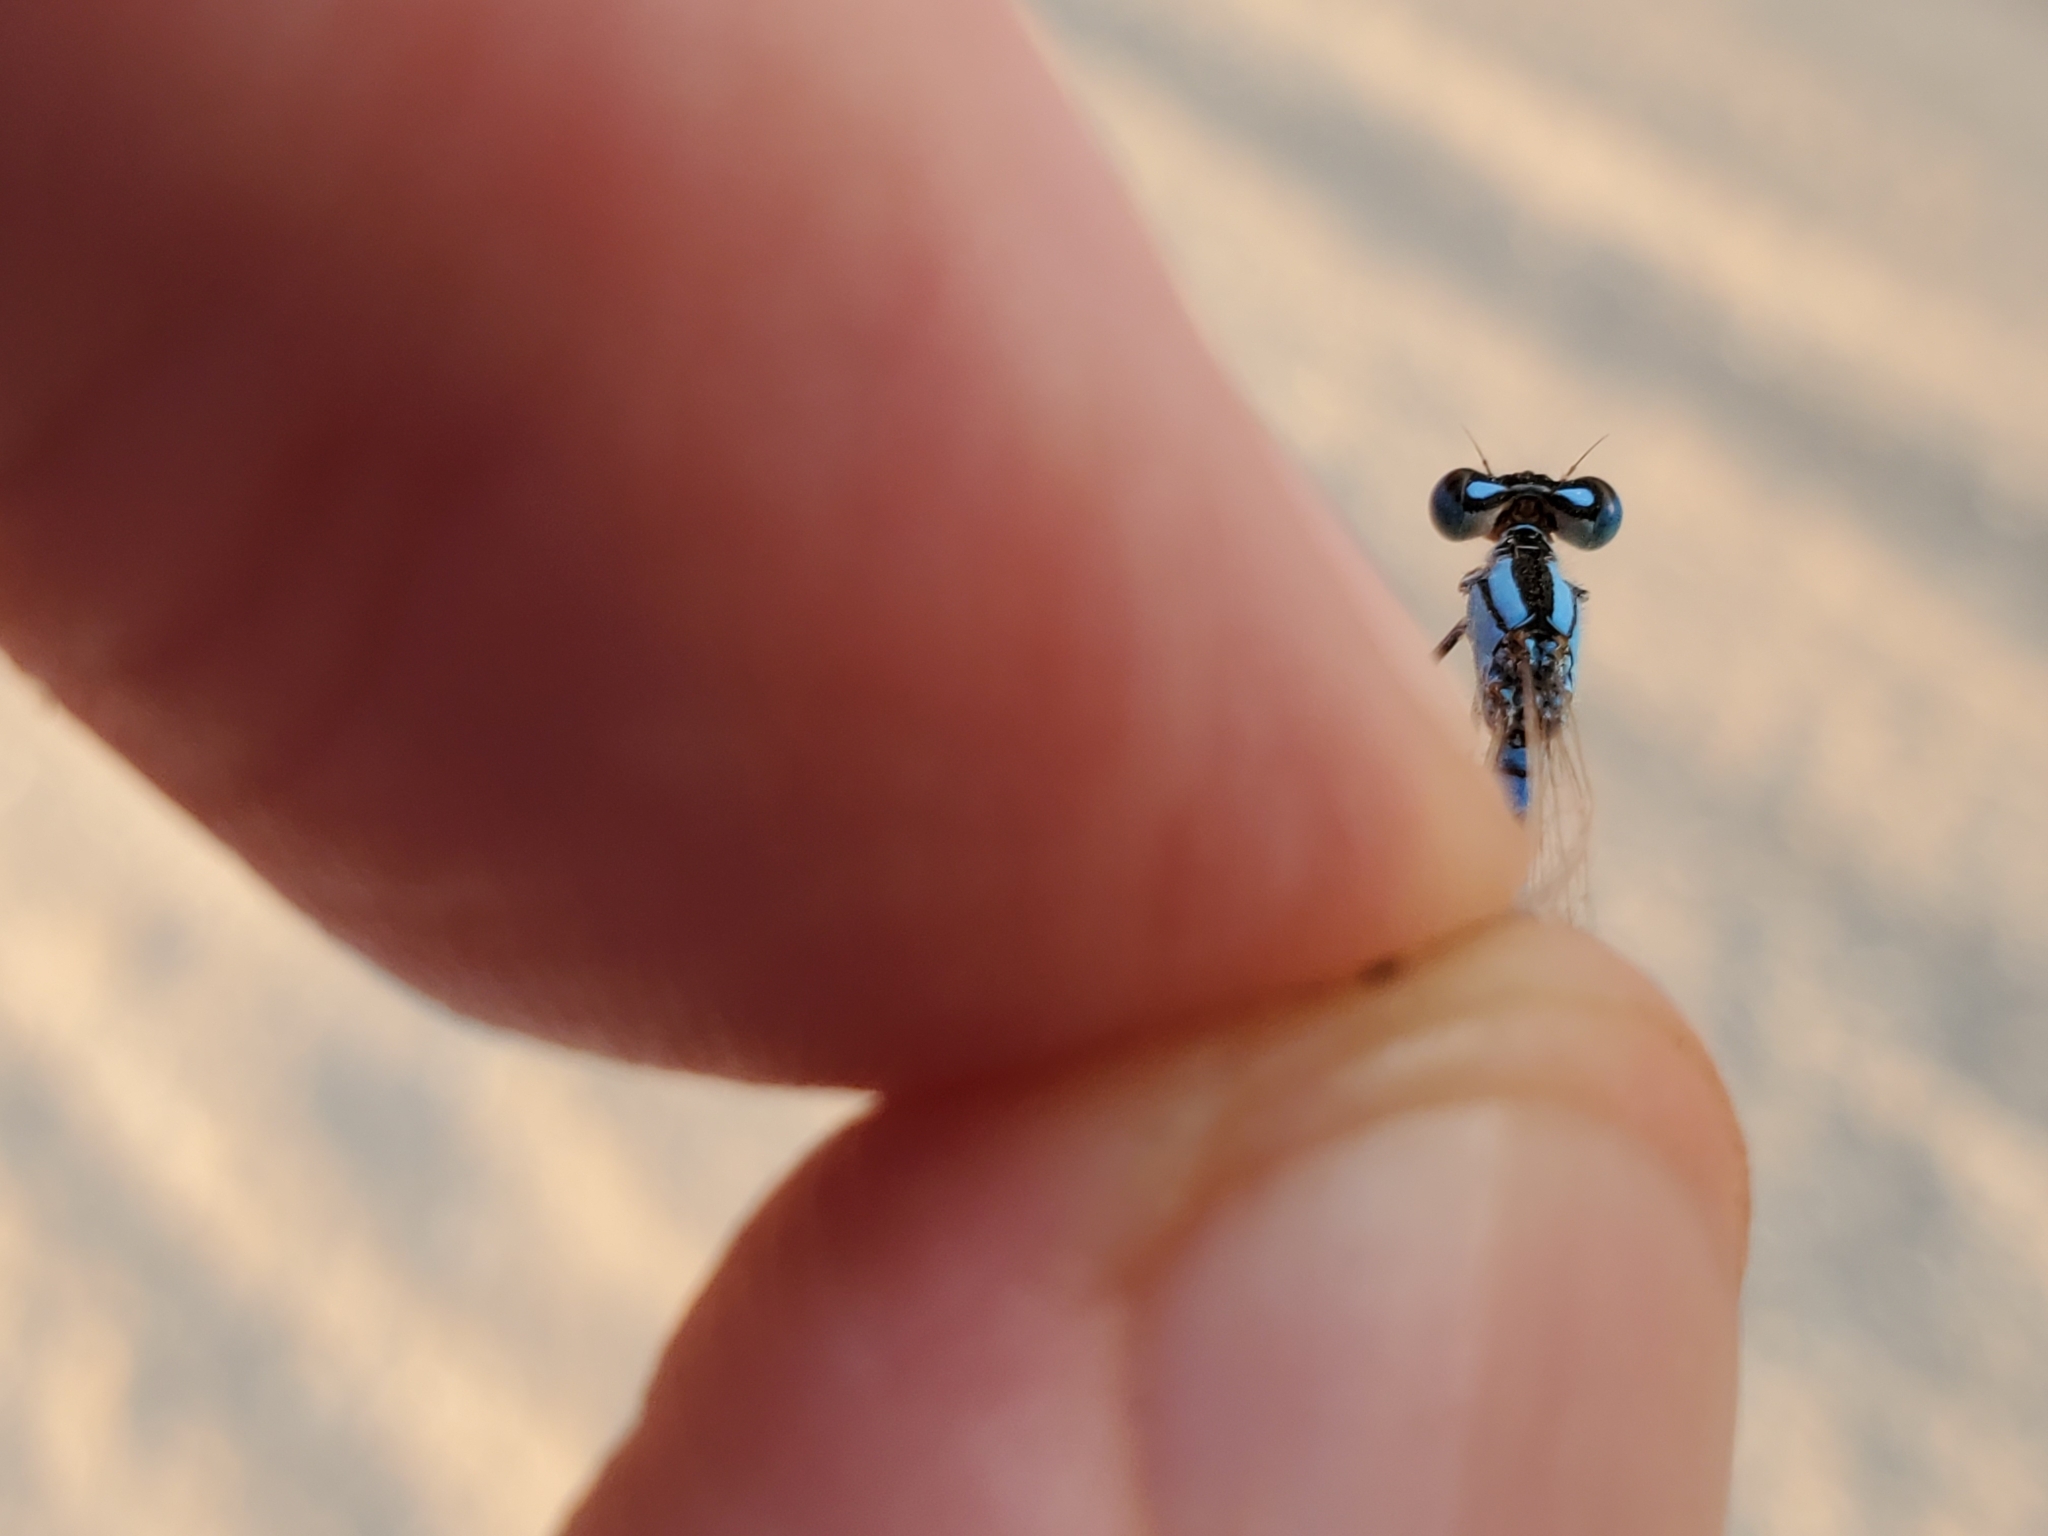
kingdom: Animalia
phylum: Arthropoda
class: Insecta
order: Odonata
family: Coenagrionidae
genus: Enallagma
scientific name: Enallagma civile
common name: Damselfly
